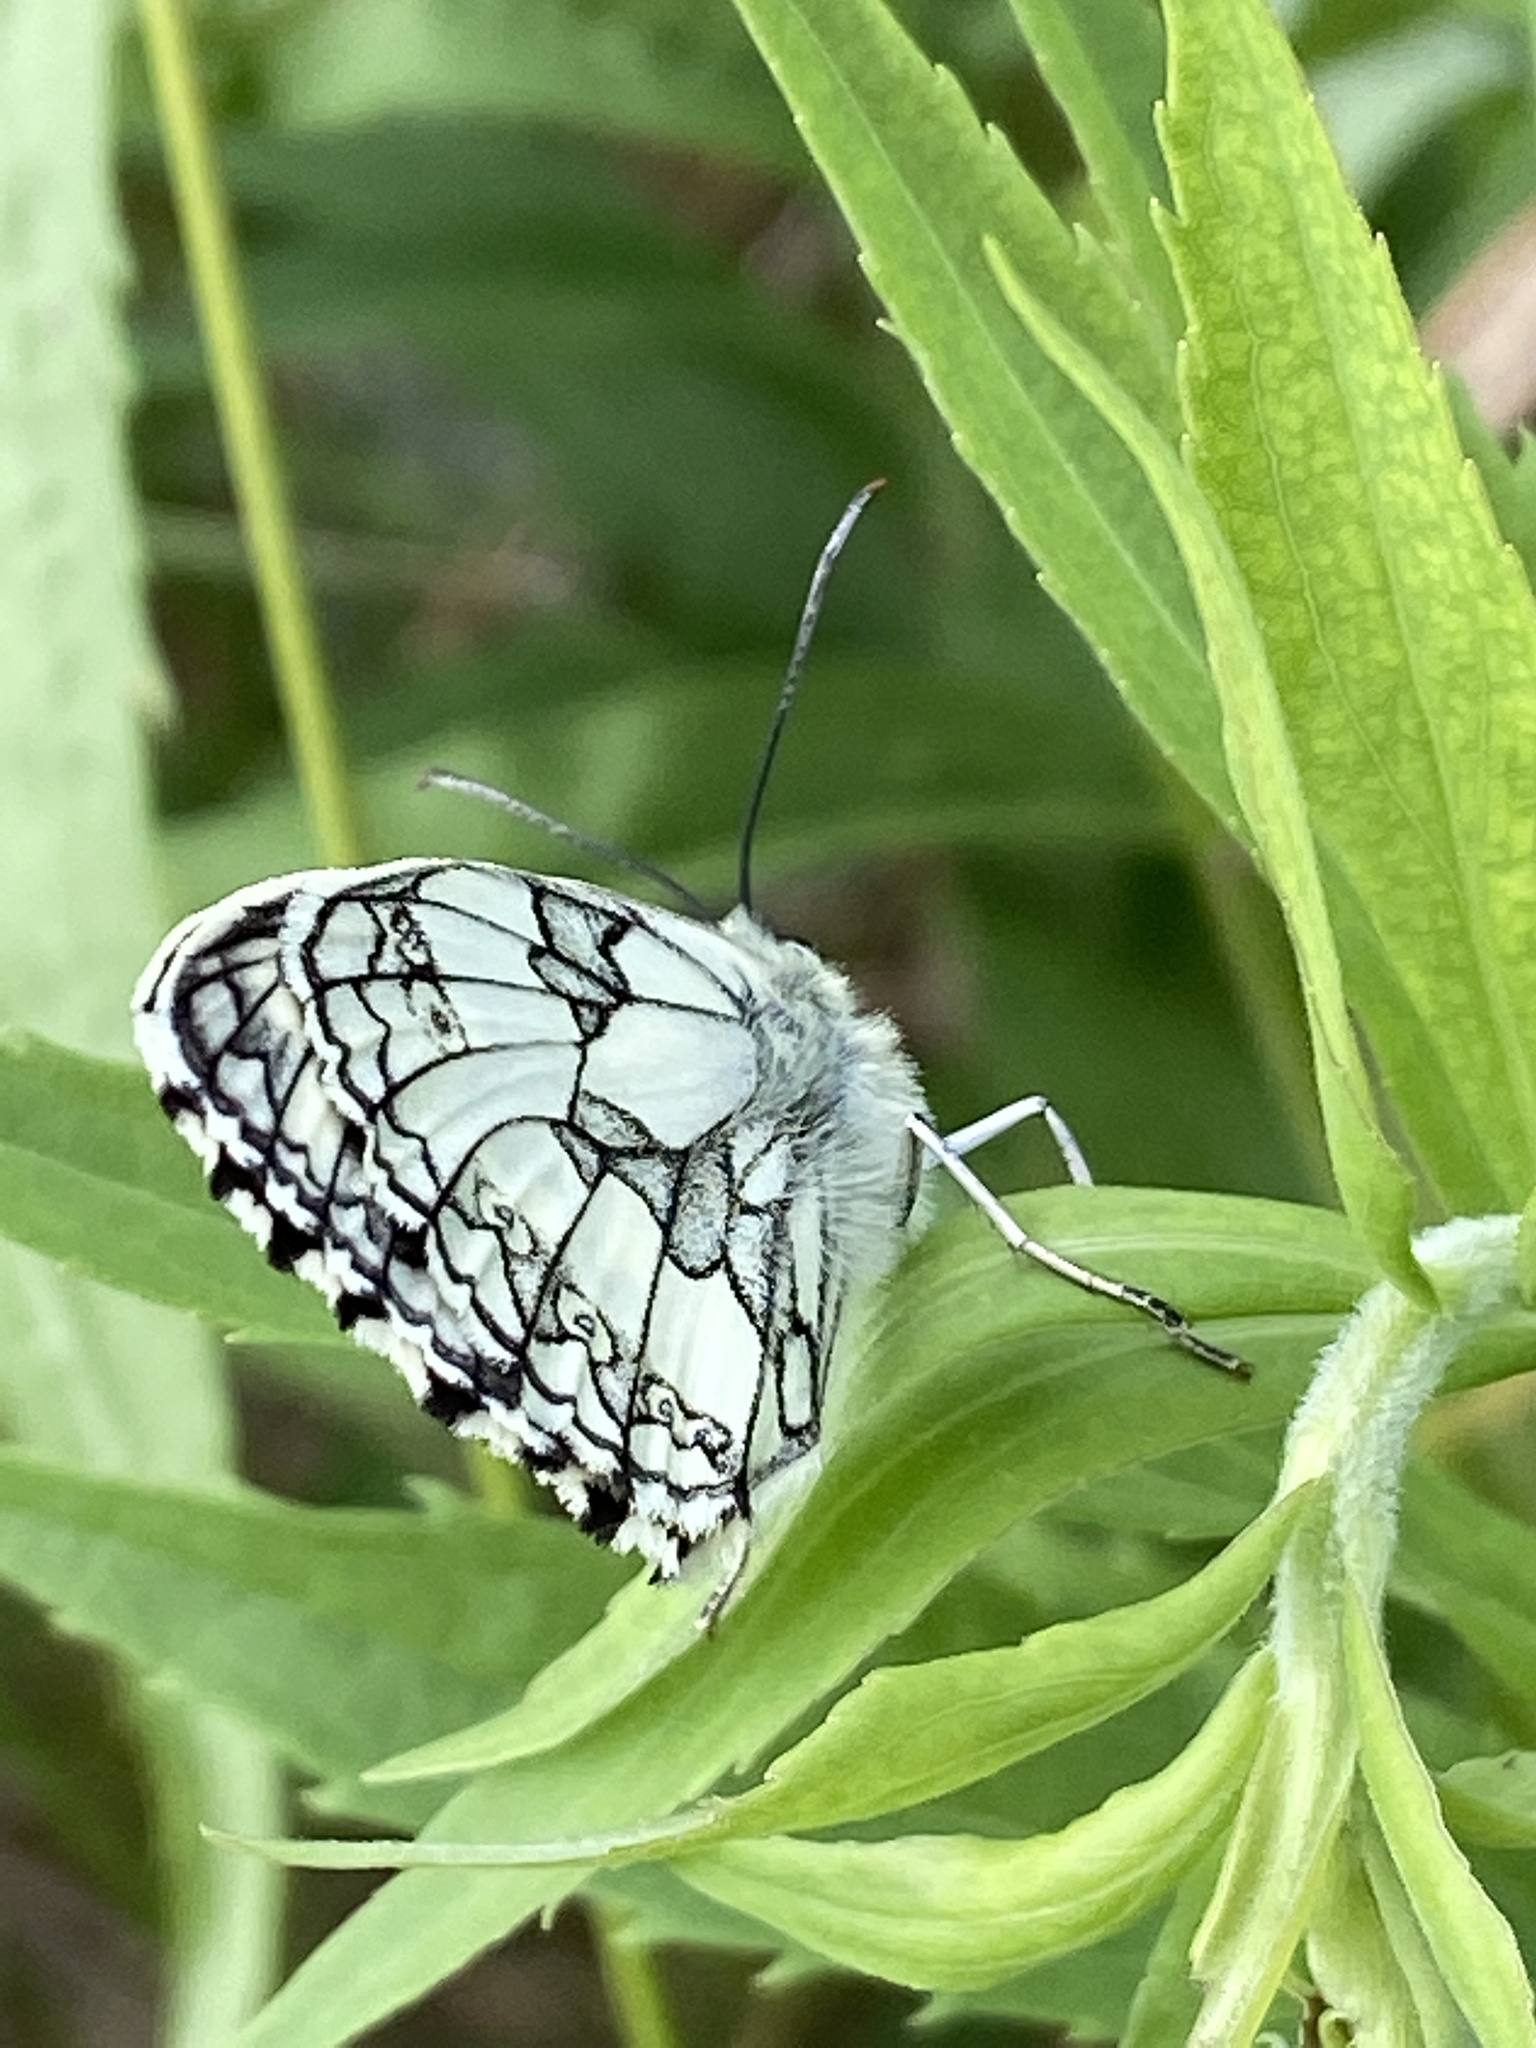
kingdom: Animalia
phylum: Arthropoda
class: Insecta
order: Lepidoptera
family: Nymphalidae
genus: Melanargia
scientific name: Melanargia galathea
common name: Marbled white
